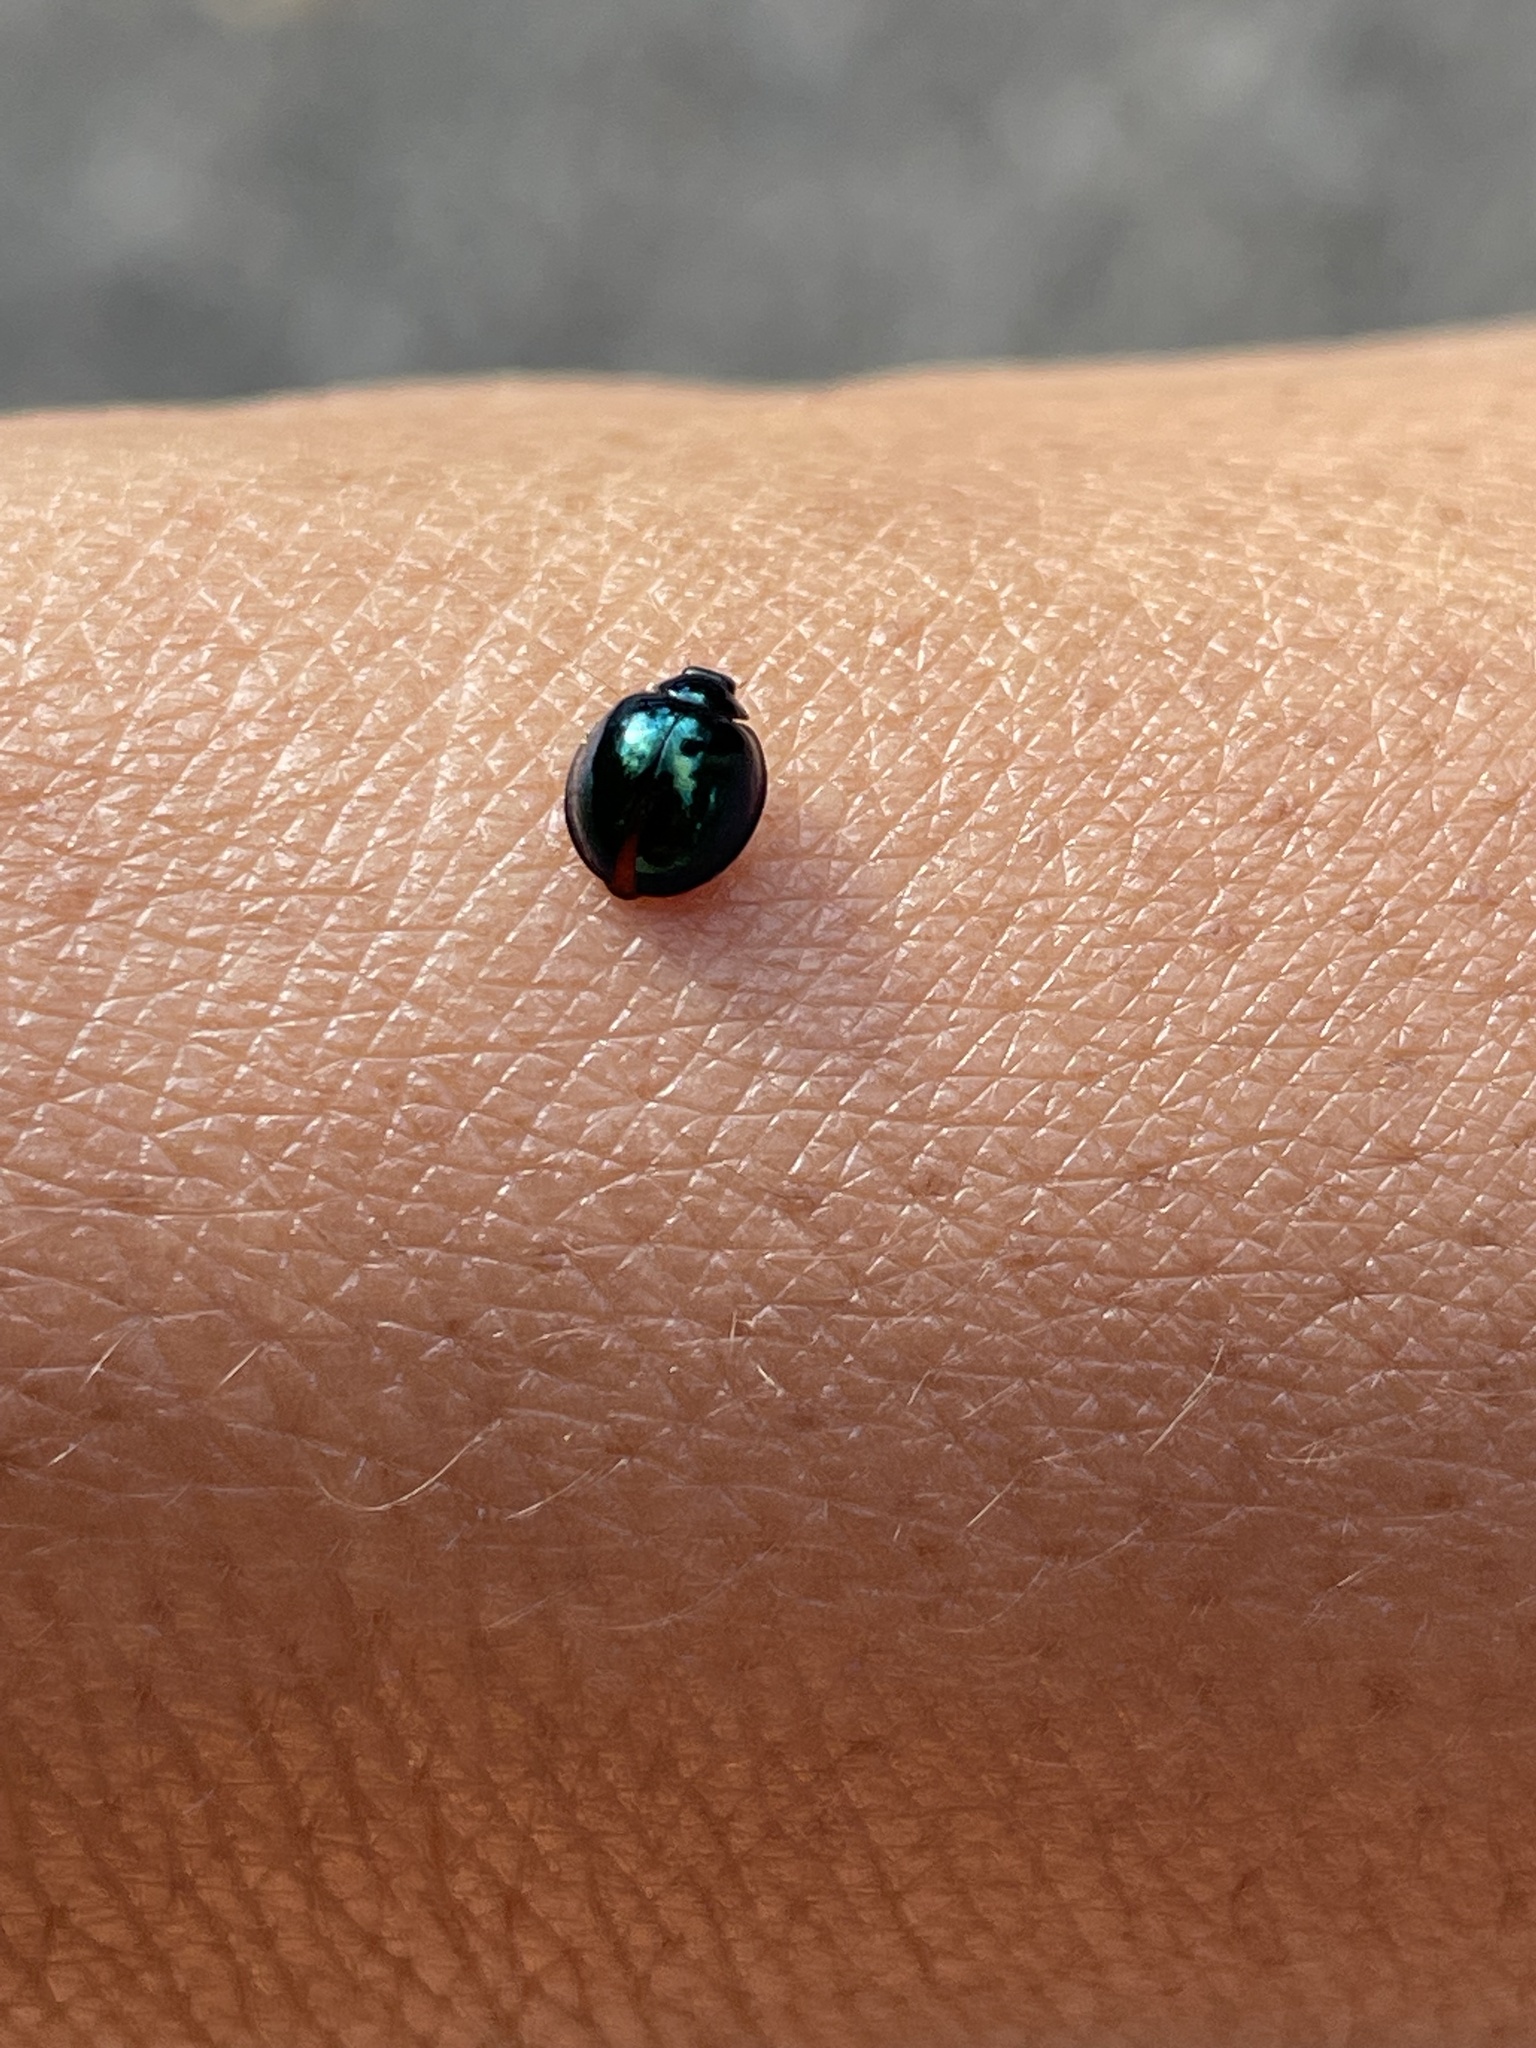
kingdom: Animalia
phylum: Arthropoda
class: Insecta
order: Coleoptera
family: Coccinellidae
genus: Halmus
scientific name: Halmus chalybeus
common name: Steel blue ladybird beetle
